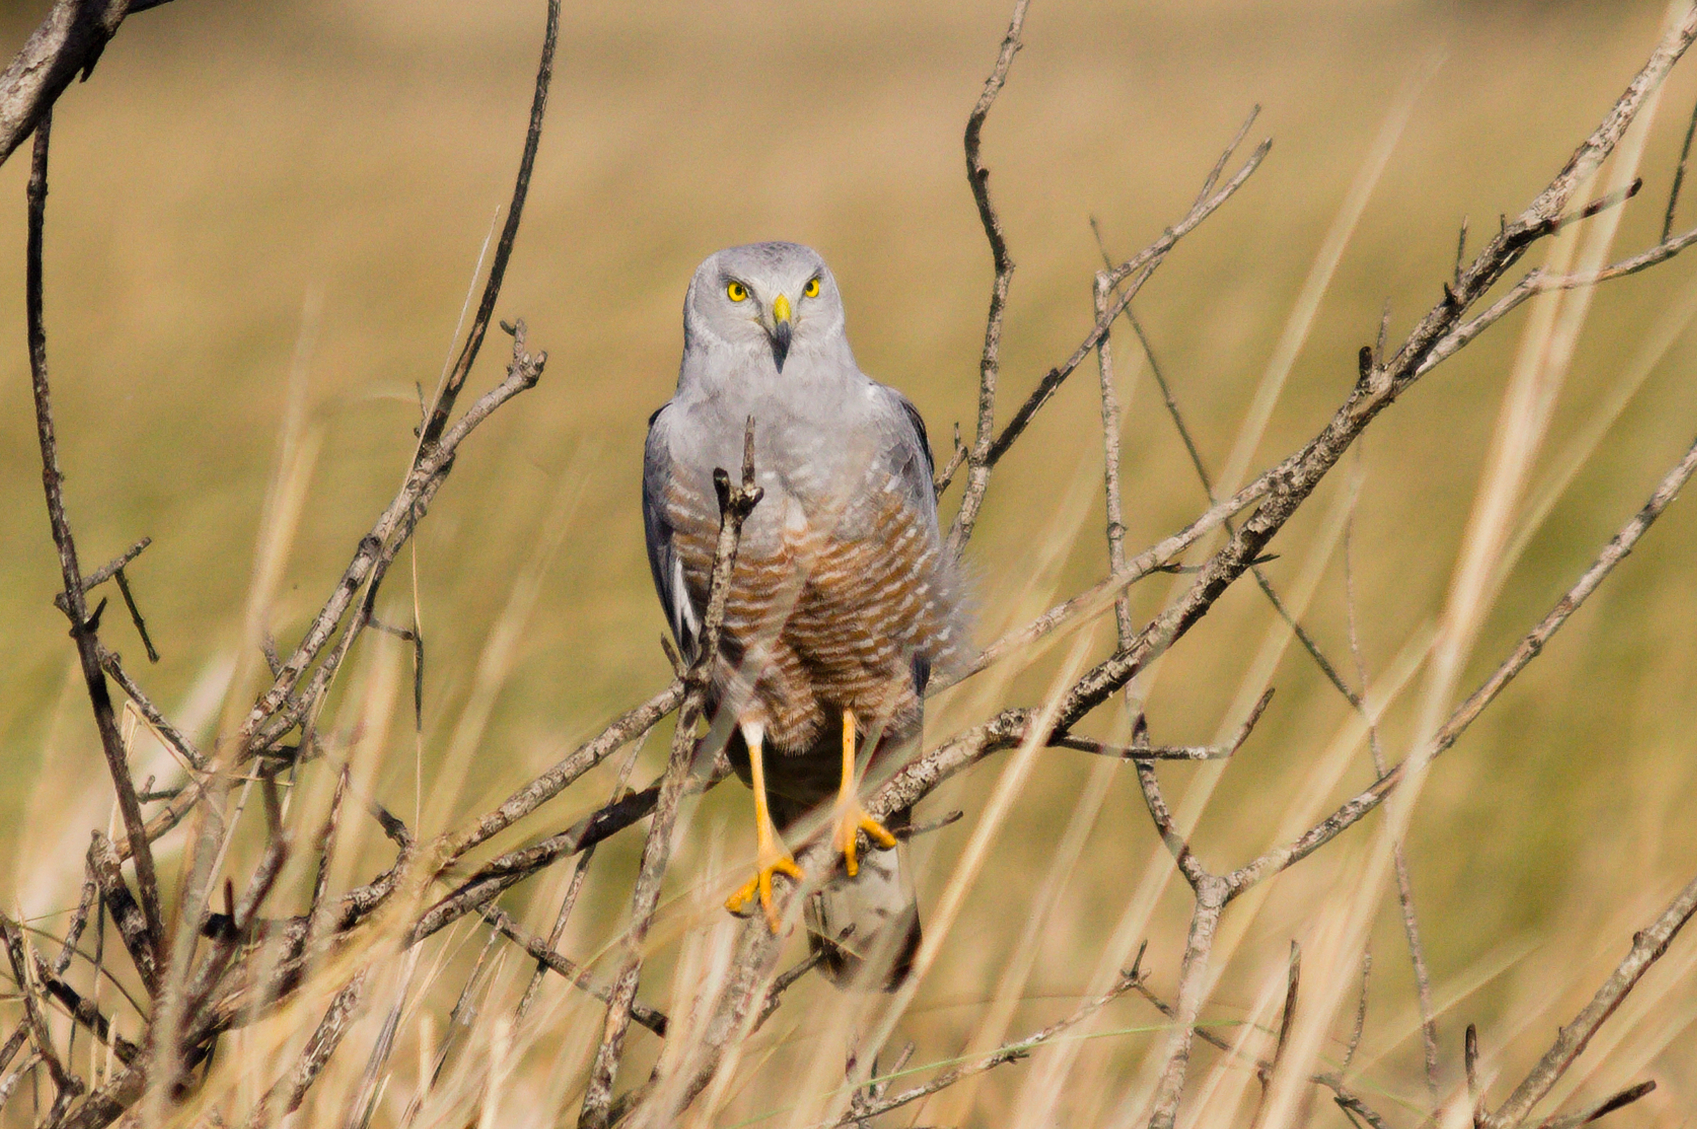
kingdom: Animalia
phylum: Chordata
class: Aves
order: Accipitriformes
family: Accipitridae
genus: Circus
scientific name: Circus cinereus
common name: Cinereous harrier
